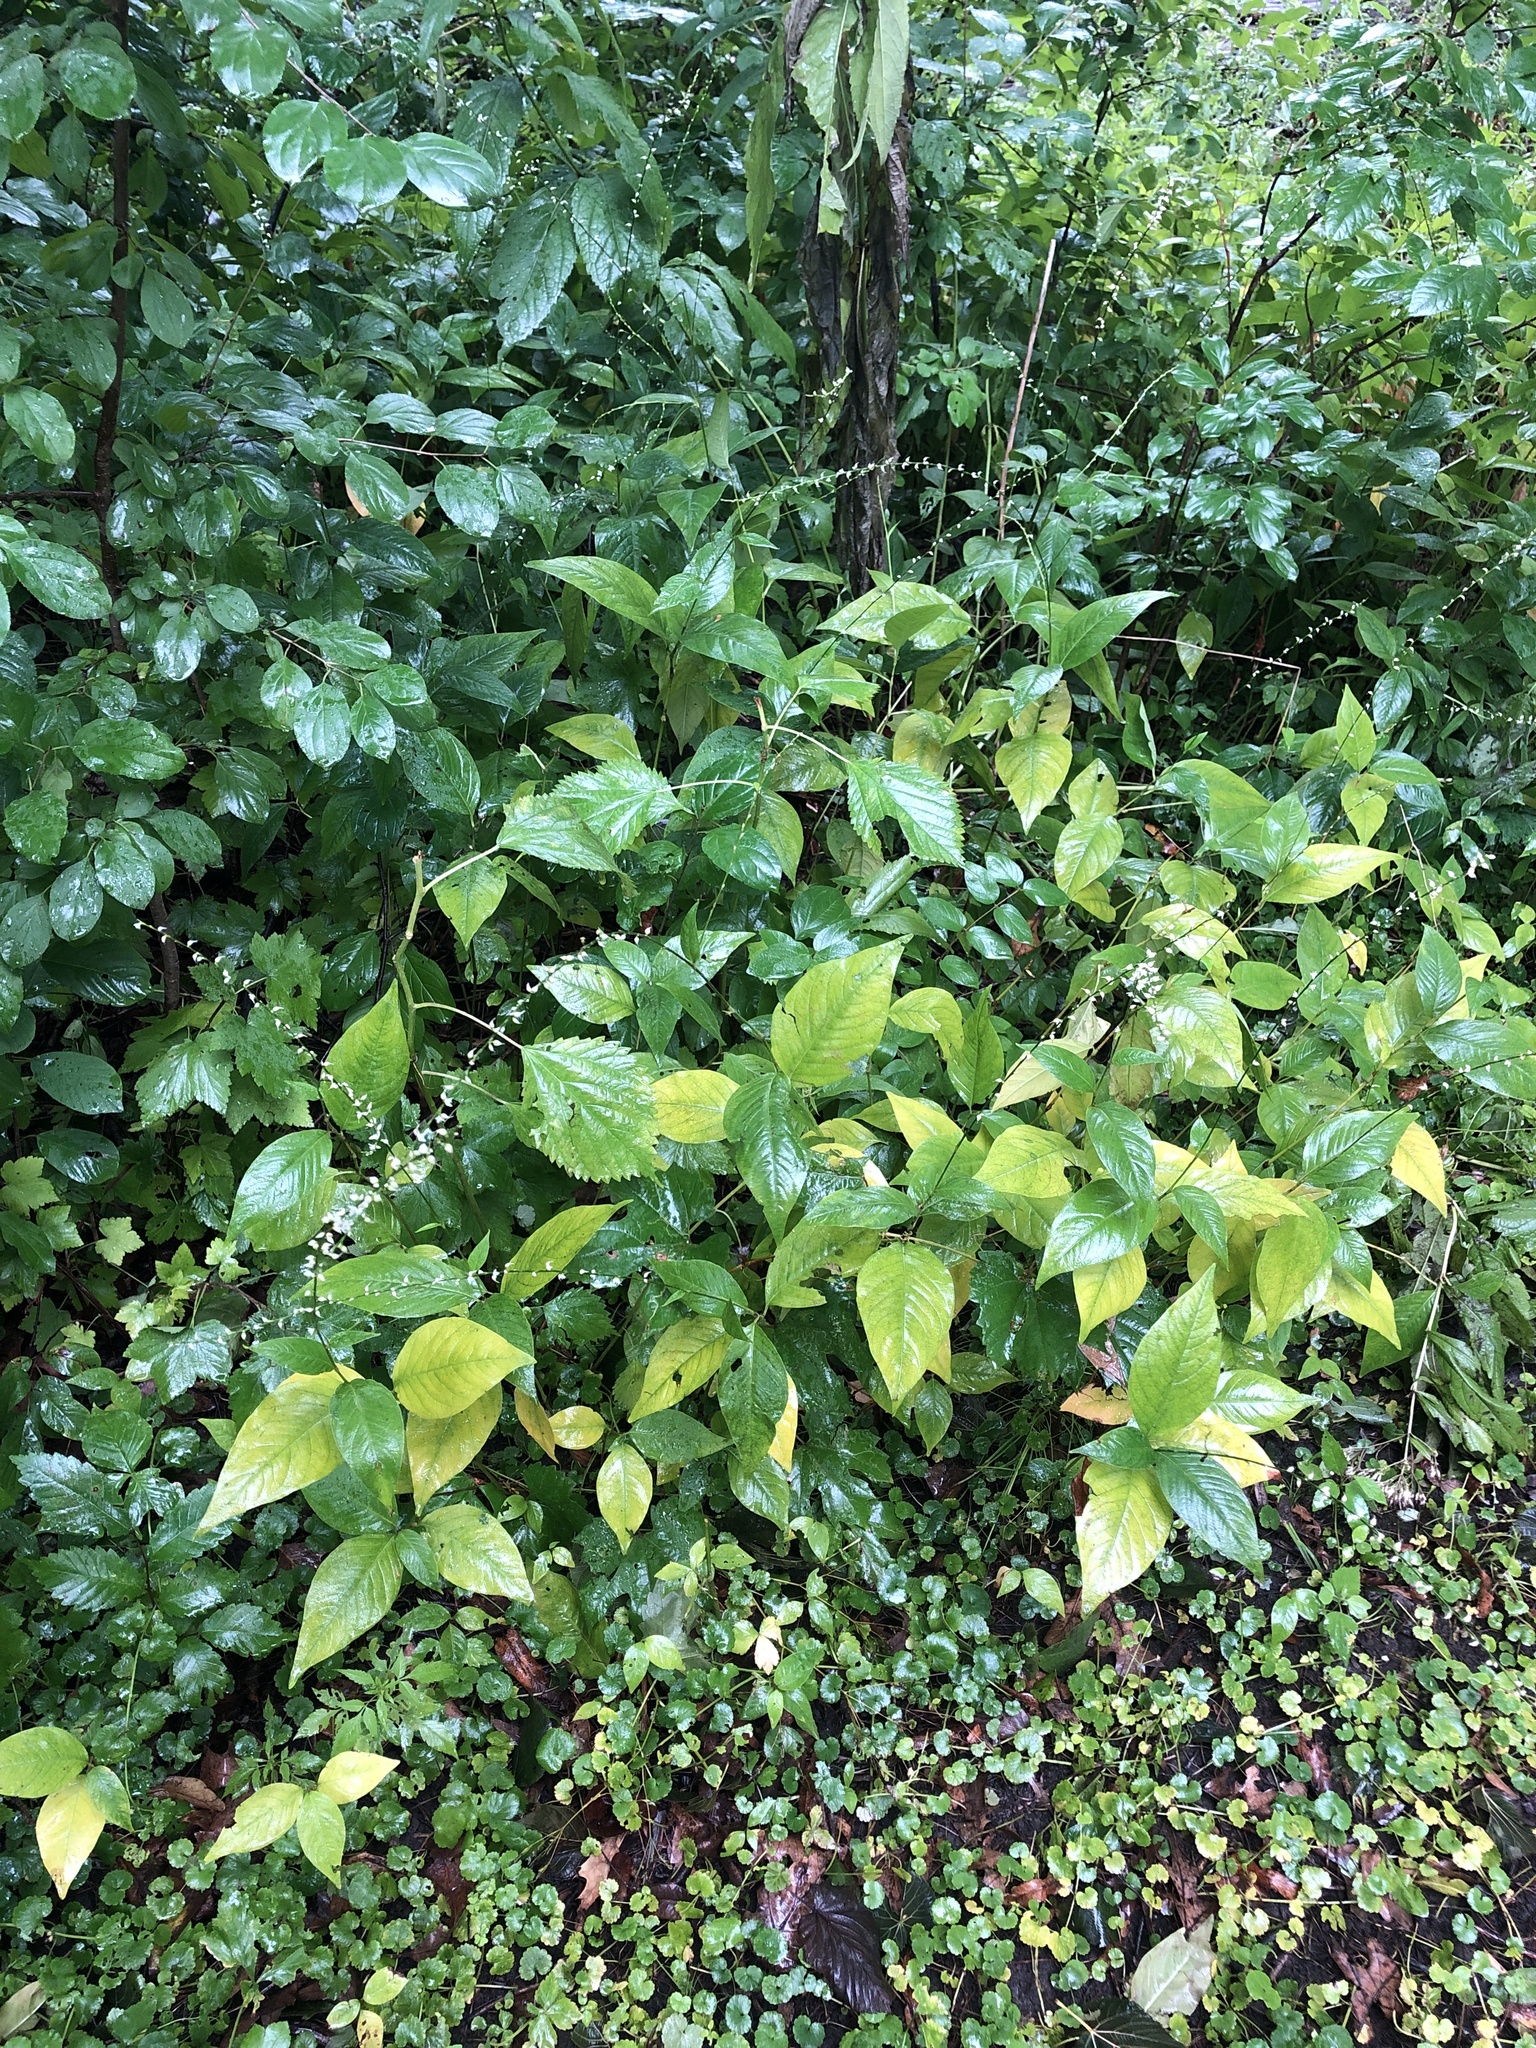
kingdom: Plantae
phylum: Tracheophyta
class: Magnoliopsida
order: Caryophyllales
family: Polygonaceae
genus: Persicaria
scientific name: Persicaria virginiana
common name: Jumpseed
